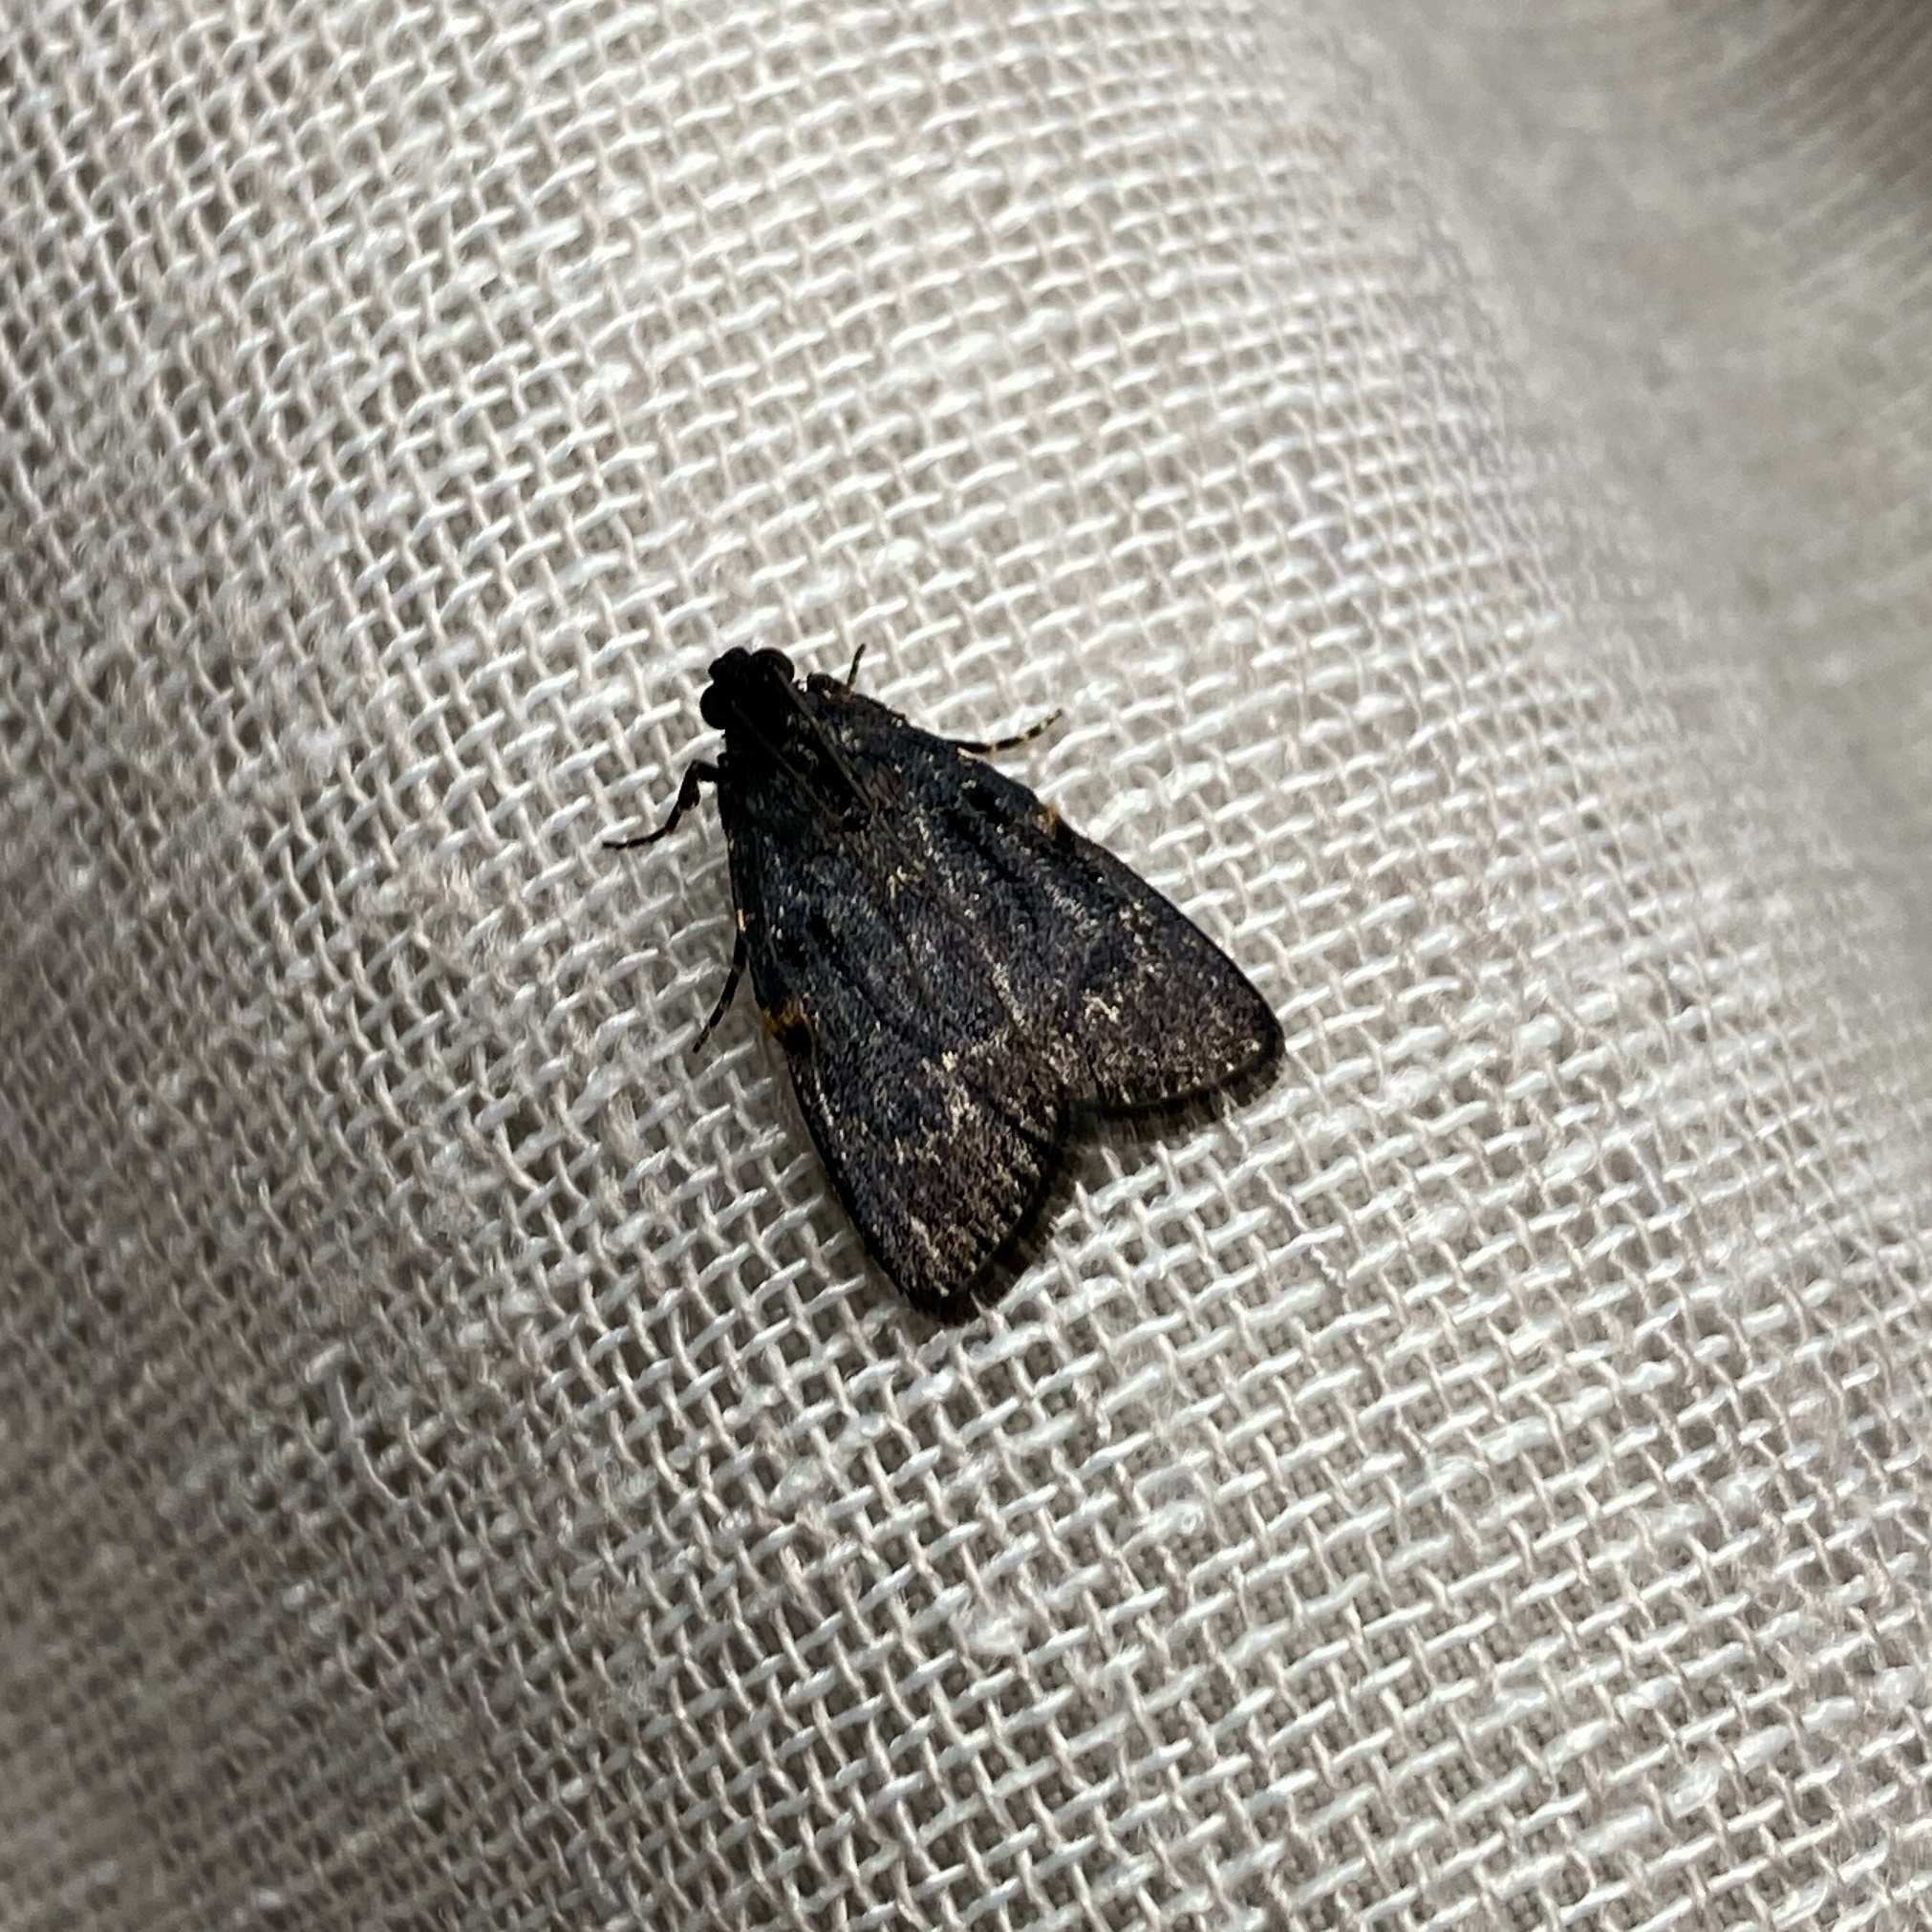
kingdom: Animalia
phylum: Arthropoda
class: Insecta
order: Lepidoptera
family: Pyralidae
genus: Stericta
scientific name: Stericta carbonalis
